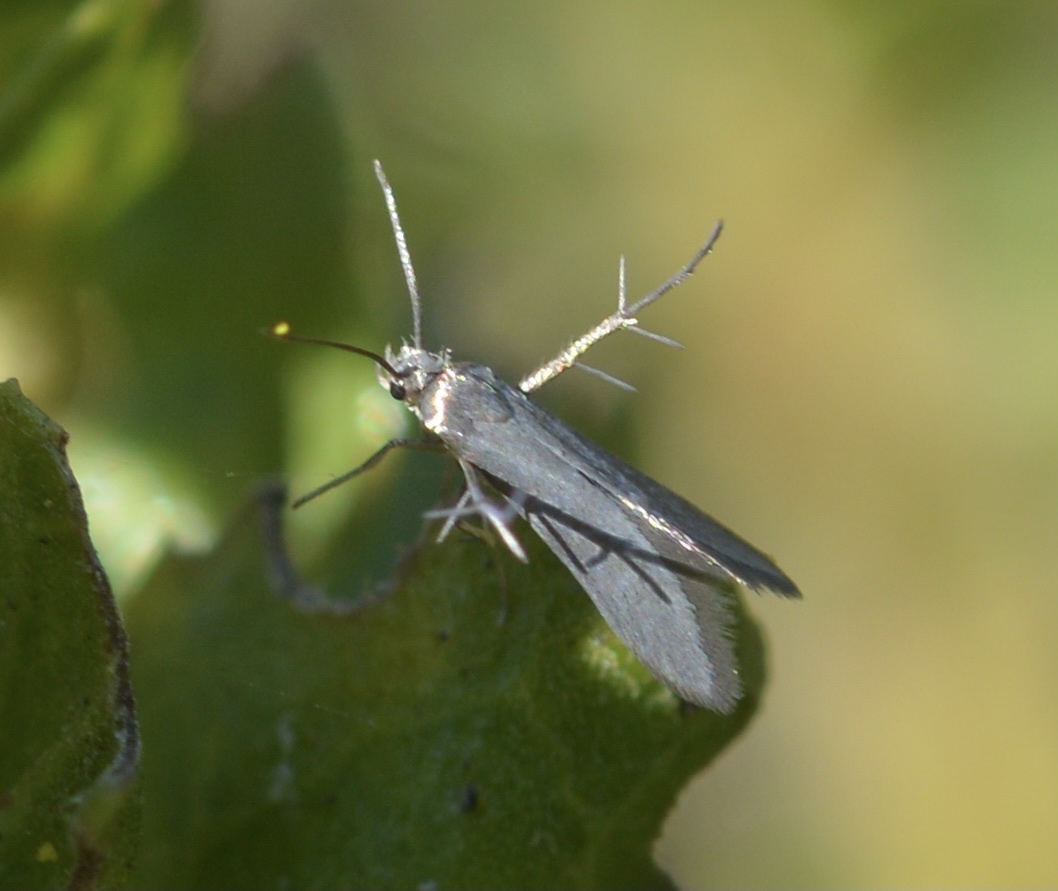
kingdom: Animalia
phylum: Arthropoda
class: Insecta
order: Lepidoptera
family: Schreckensteiniidae
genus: Schreckensteinia
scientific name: Schreckensteinia felicella
